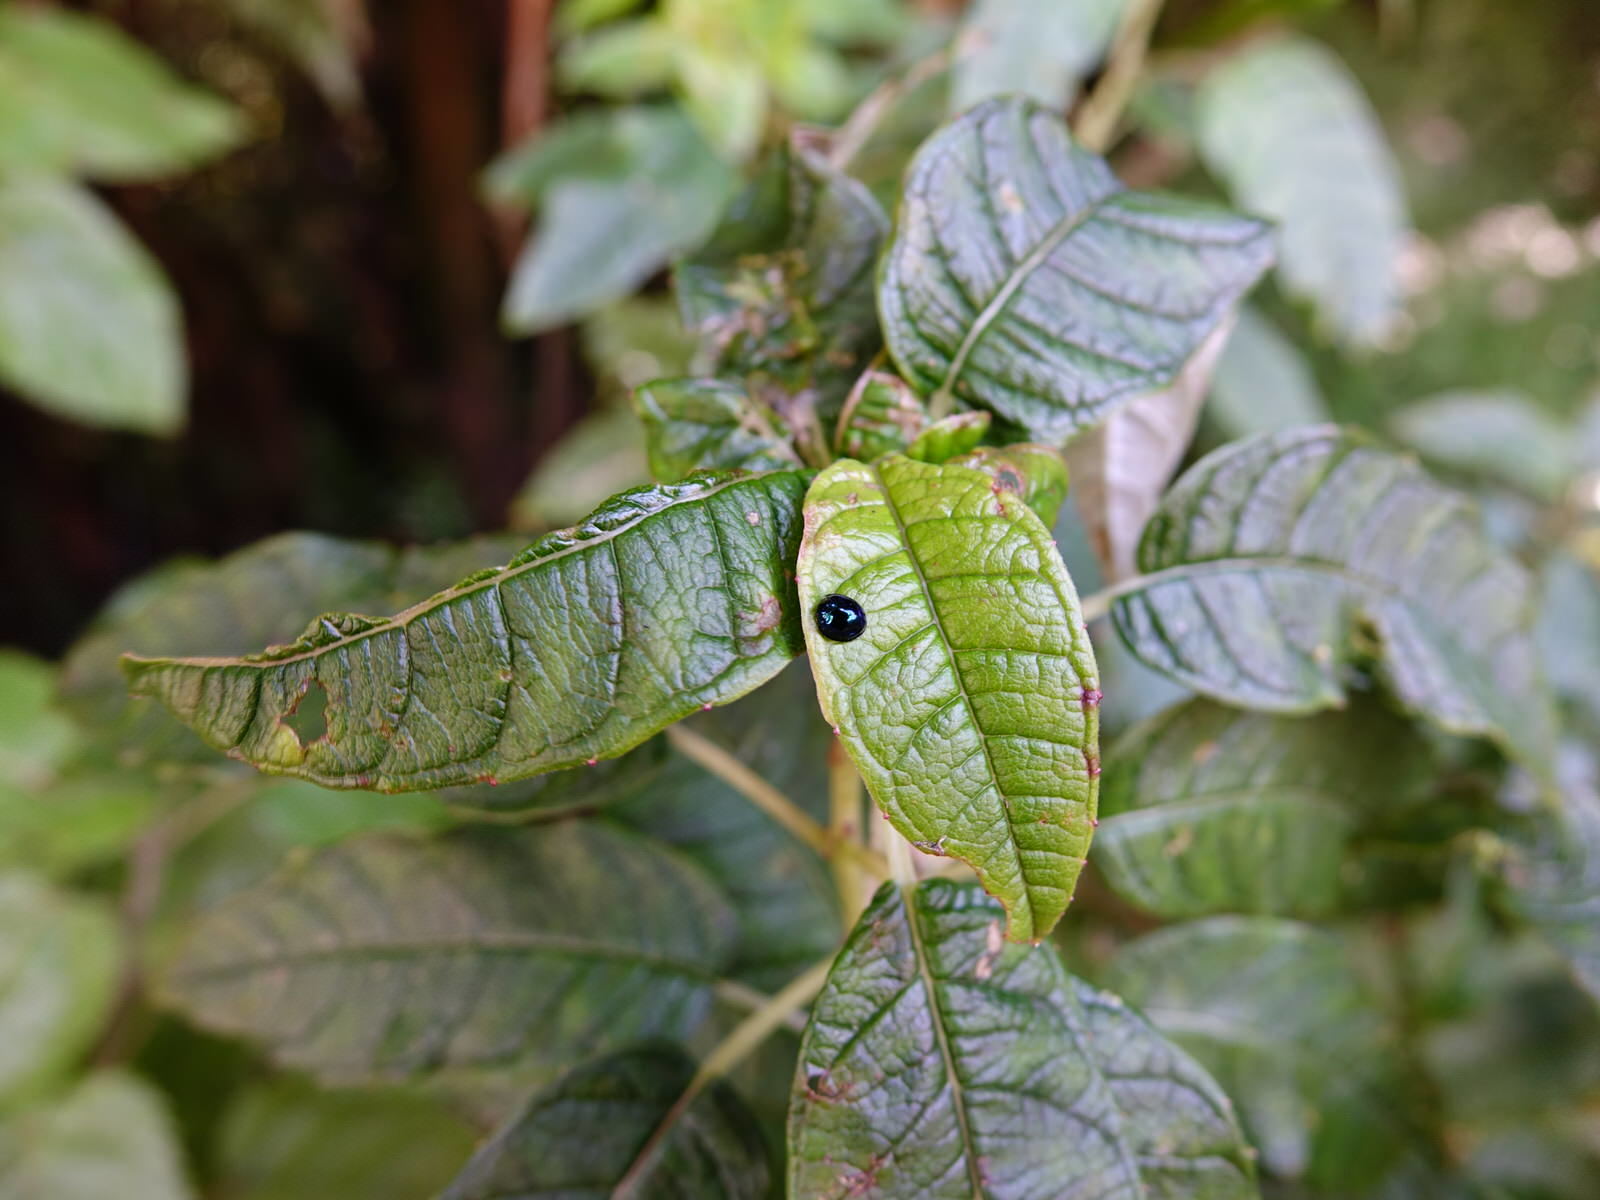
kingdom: Animalia
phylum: Arthropoda
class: Insecta
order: Coleoptera
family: Coccinellidae
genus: Halmus
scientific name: Halmus chalybeus
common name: Steel blue ladybird beetle
